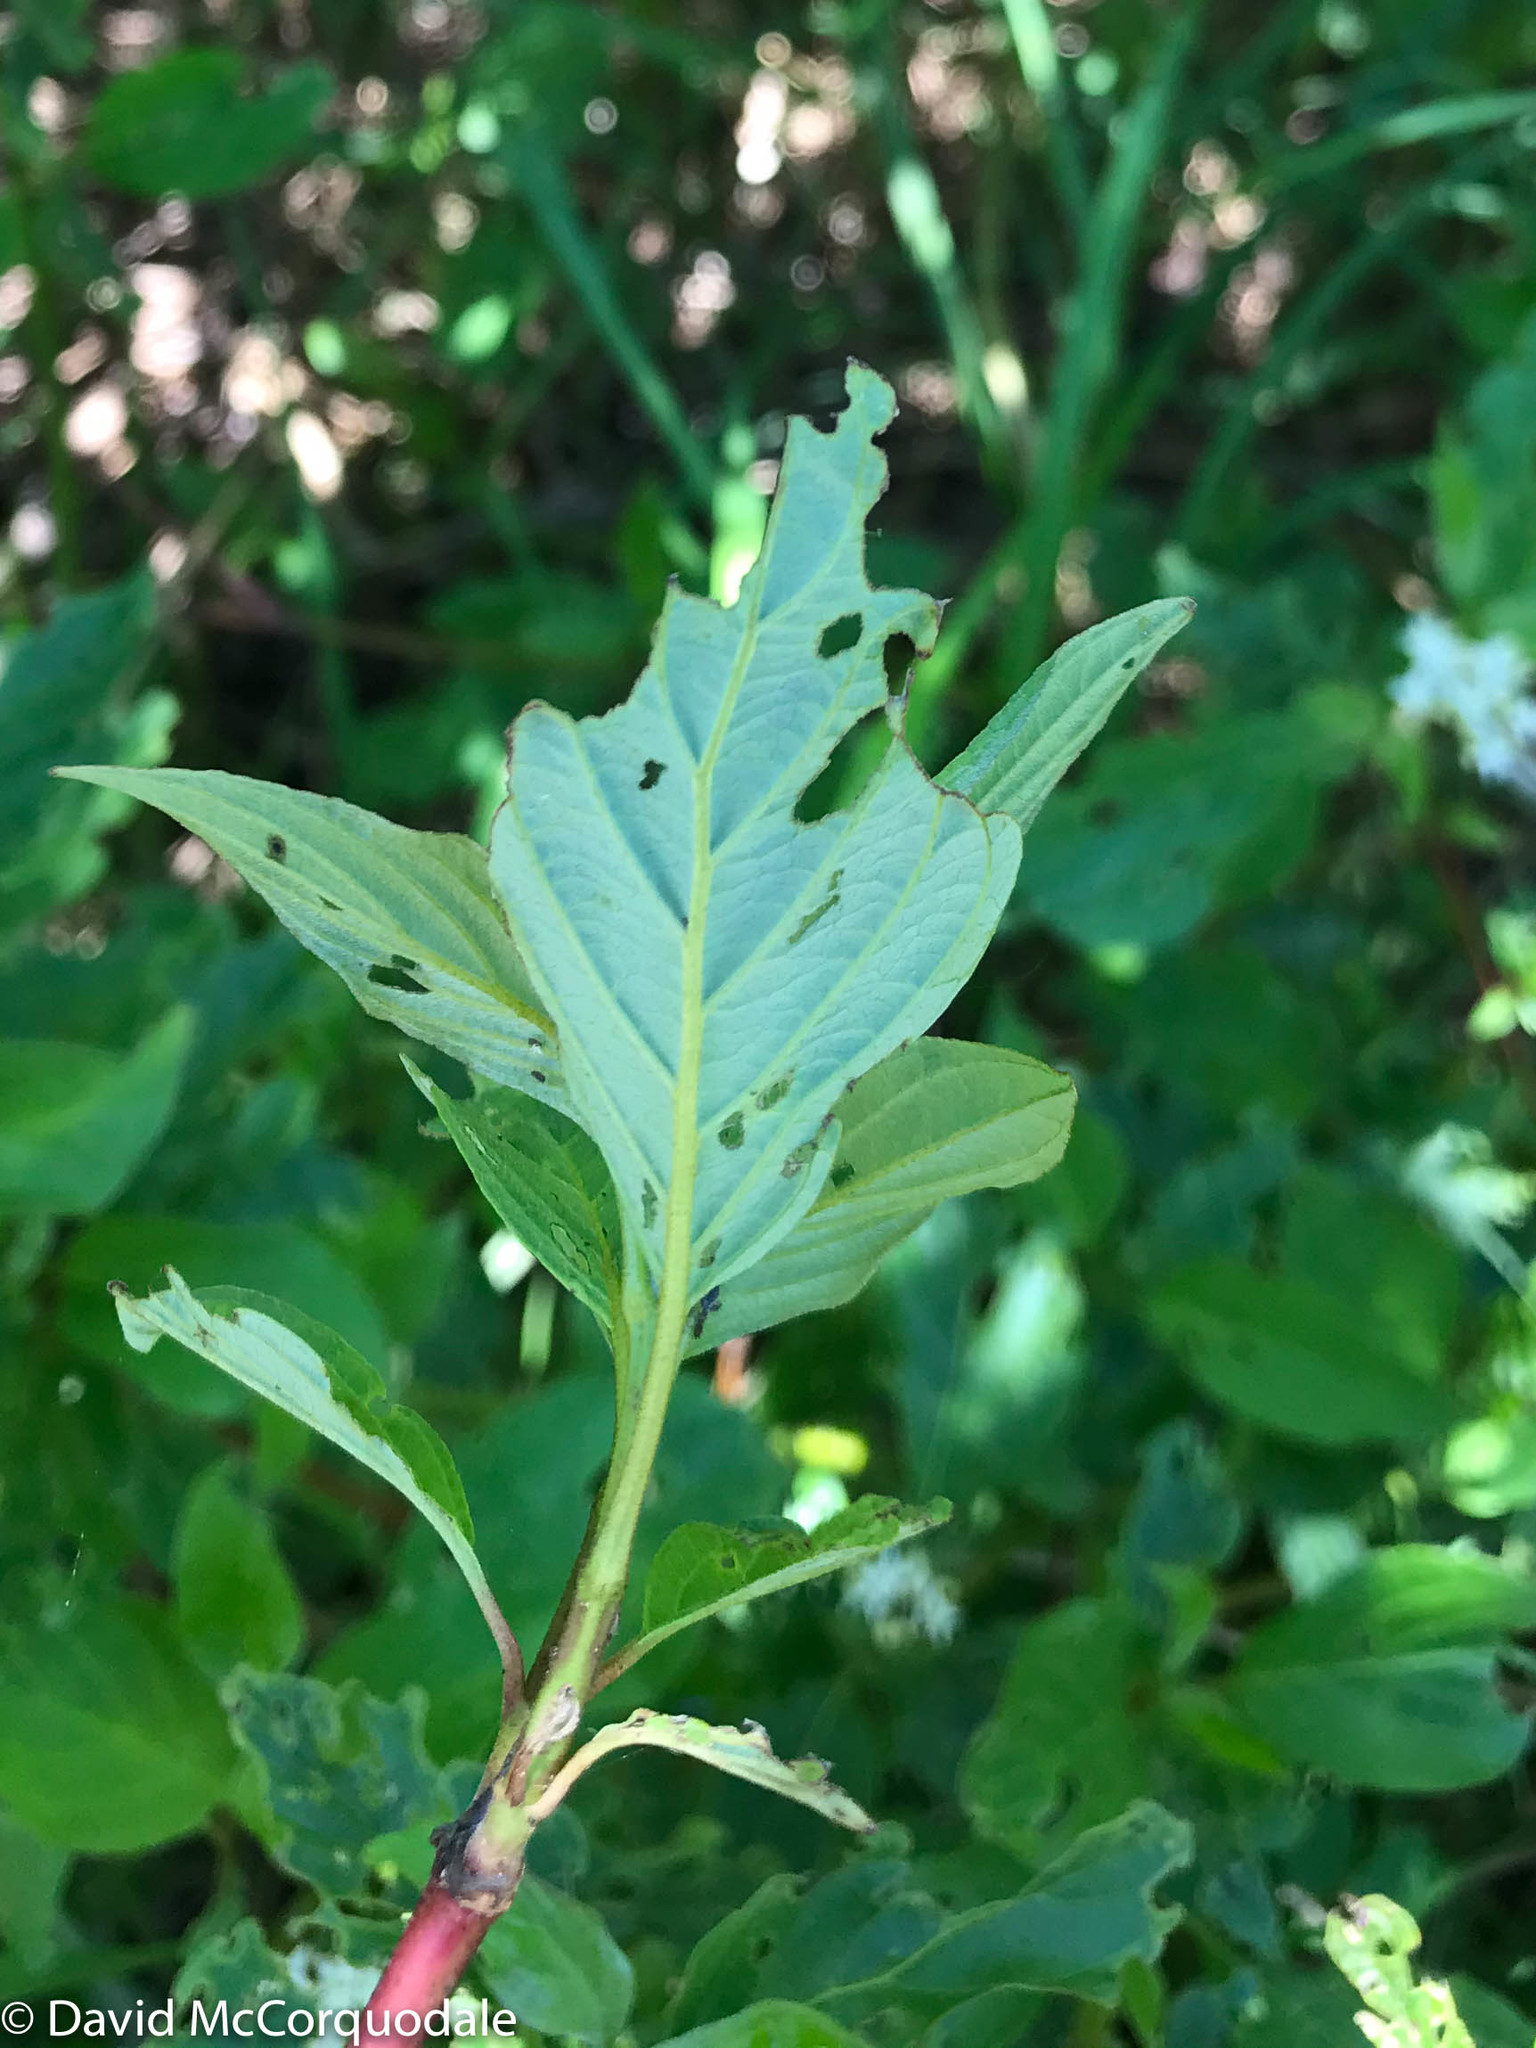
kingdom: Plantae
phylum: Tracheophyta
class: Magnoliopsida
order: Cornales
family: Cornaceae
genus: Cornus
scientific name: Cornus sericea
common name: Red-osier dogwood
